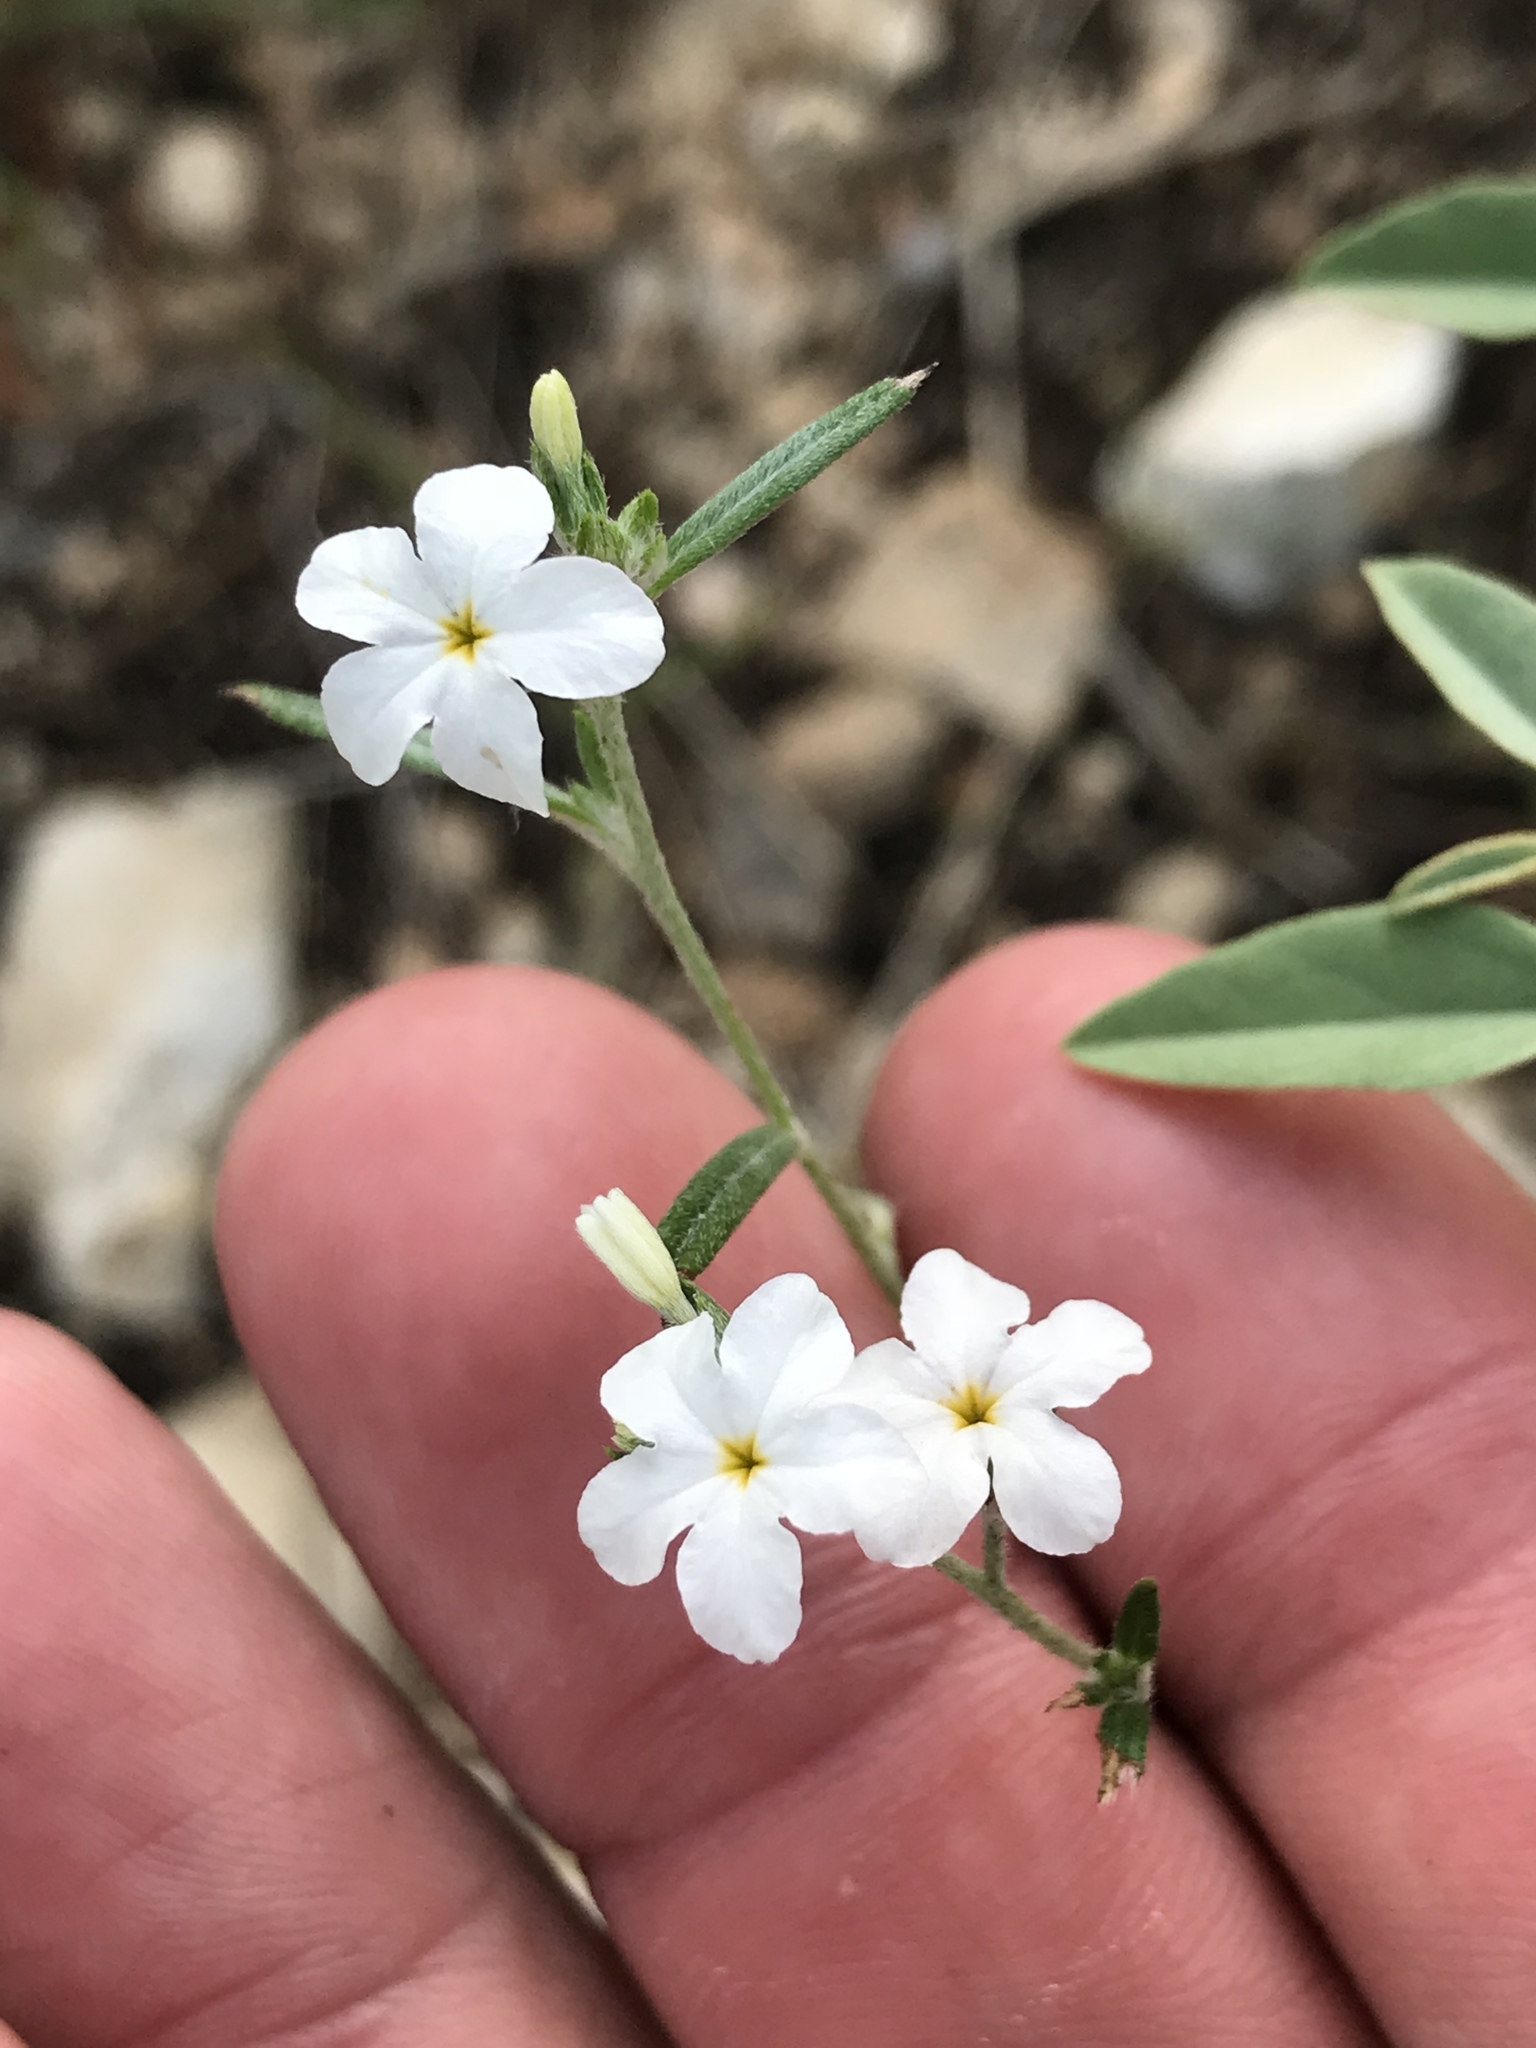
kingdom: Plantae
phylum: Tracheophyta
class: Magnoliopsida
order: Boraginales
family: Heliotropiaceae
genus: Euploca
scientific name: Euploca tenella
